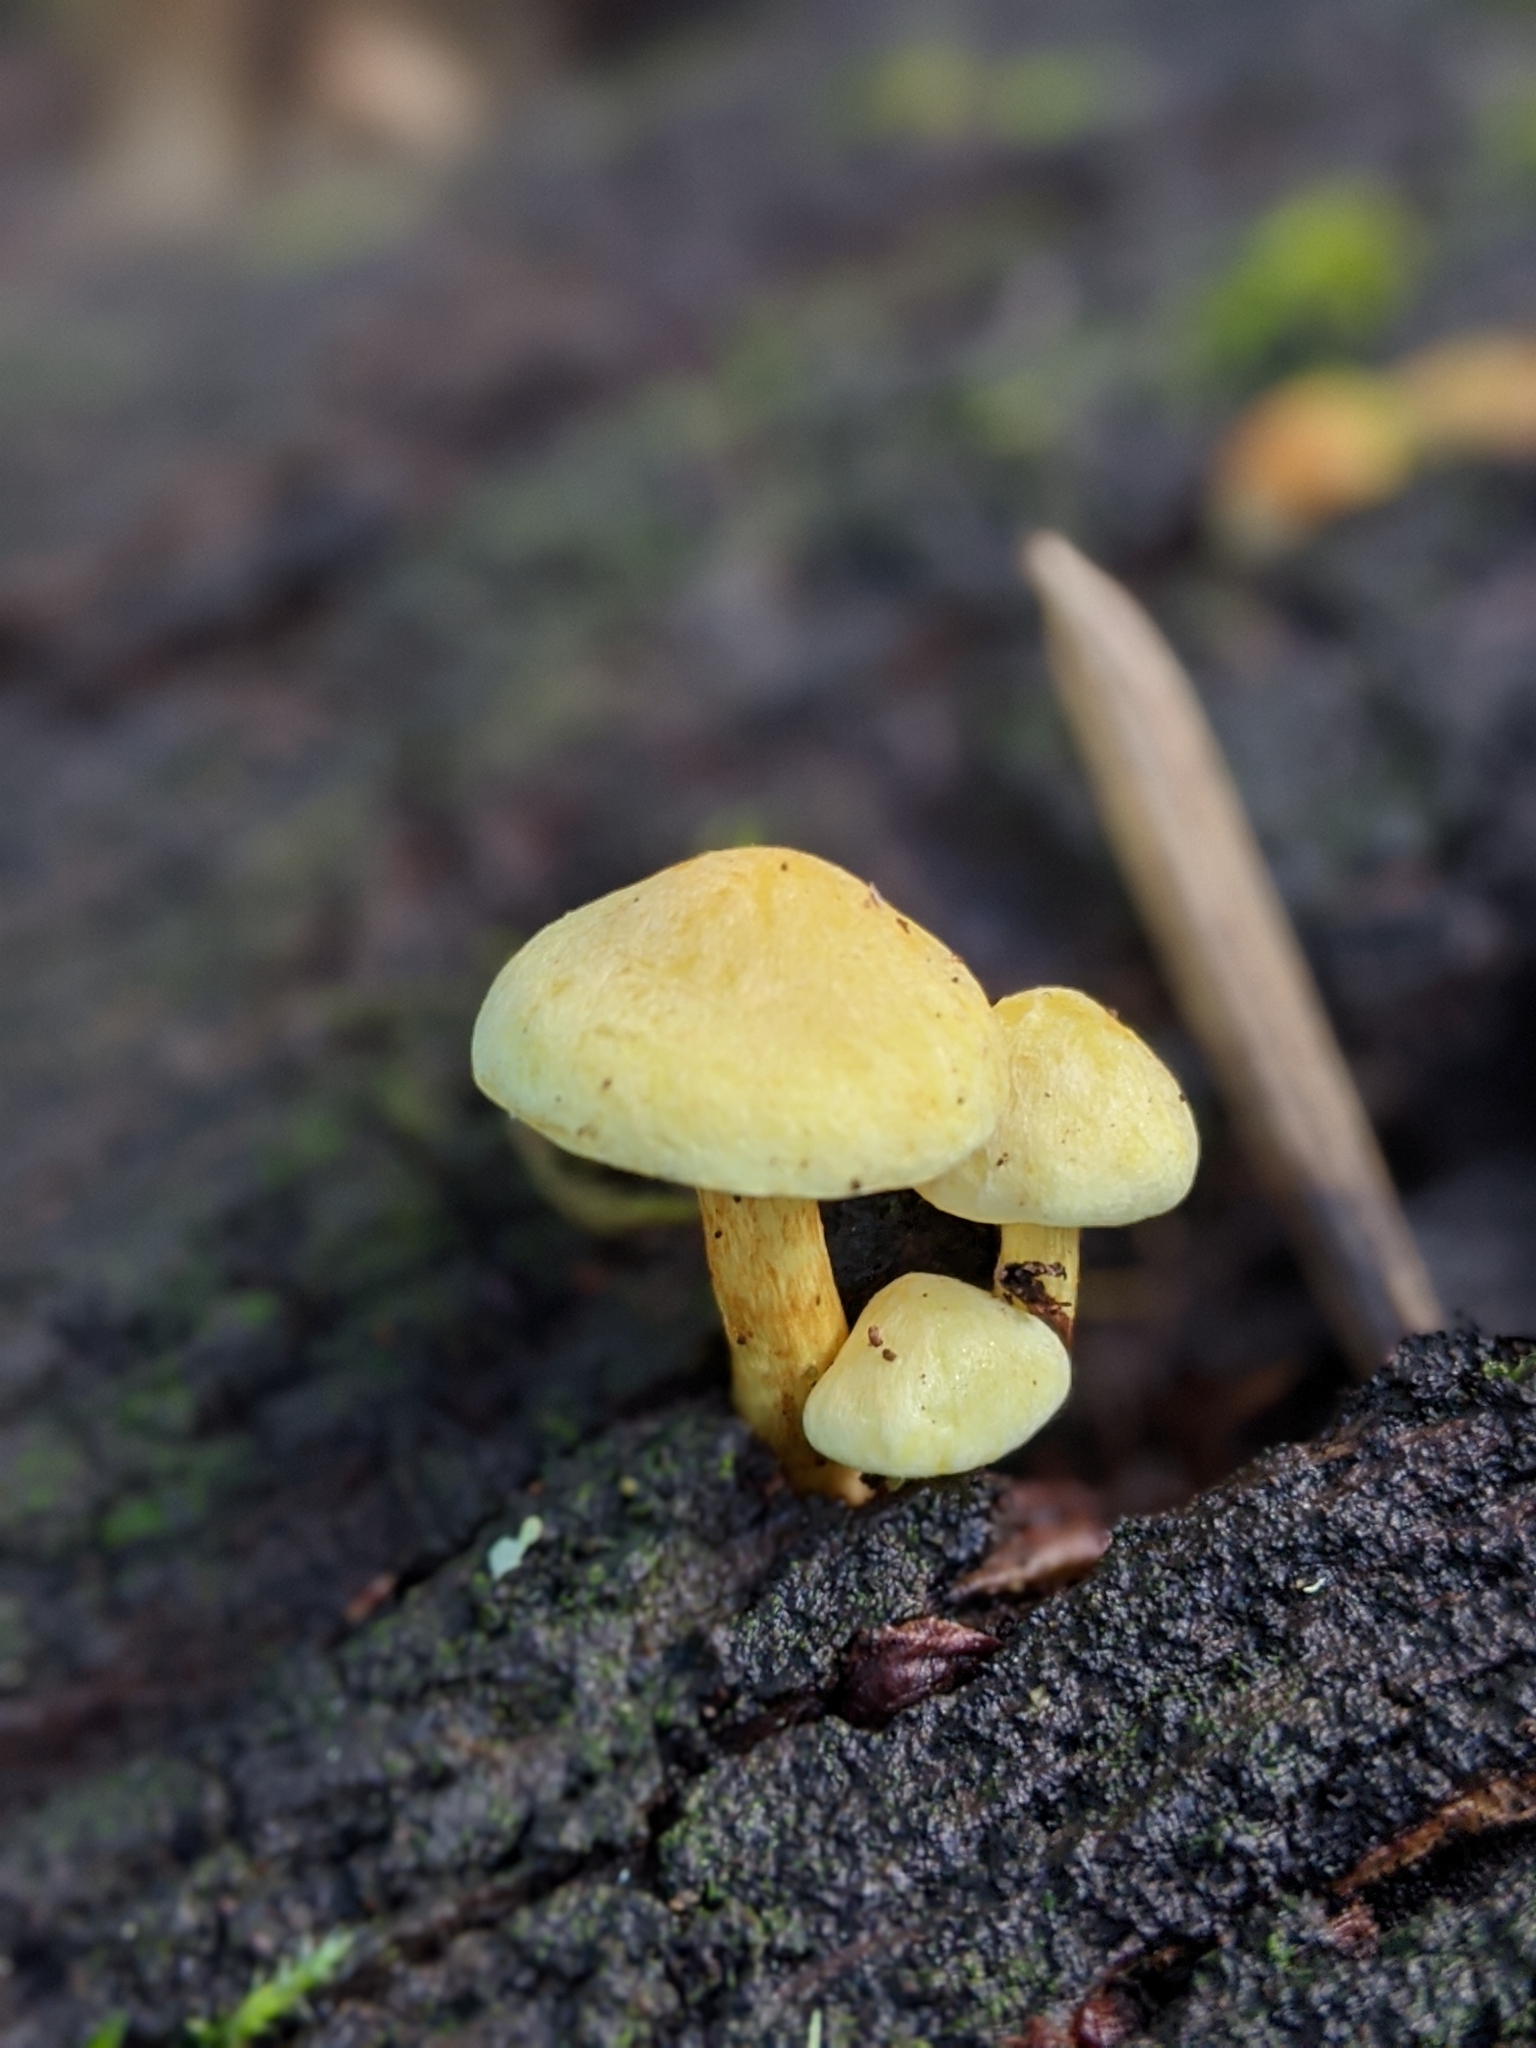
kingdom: Fungi
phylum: Basidiomycota
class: Agaricomycetes
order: Agaricales
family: Strophariaceae
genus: Hypholoma
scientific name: Hypholoma fasciculare
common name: Sulphur tuft
